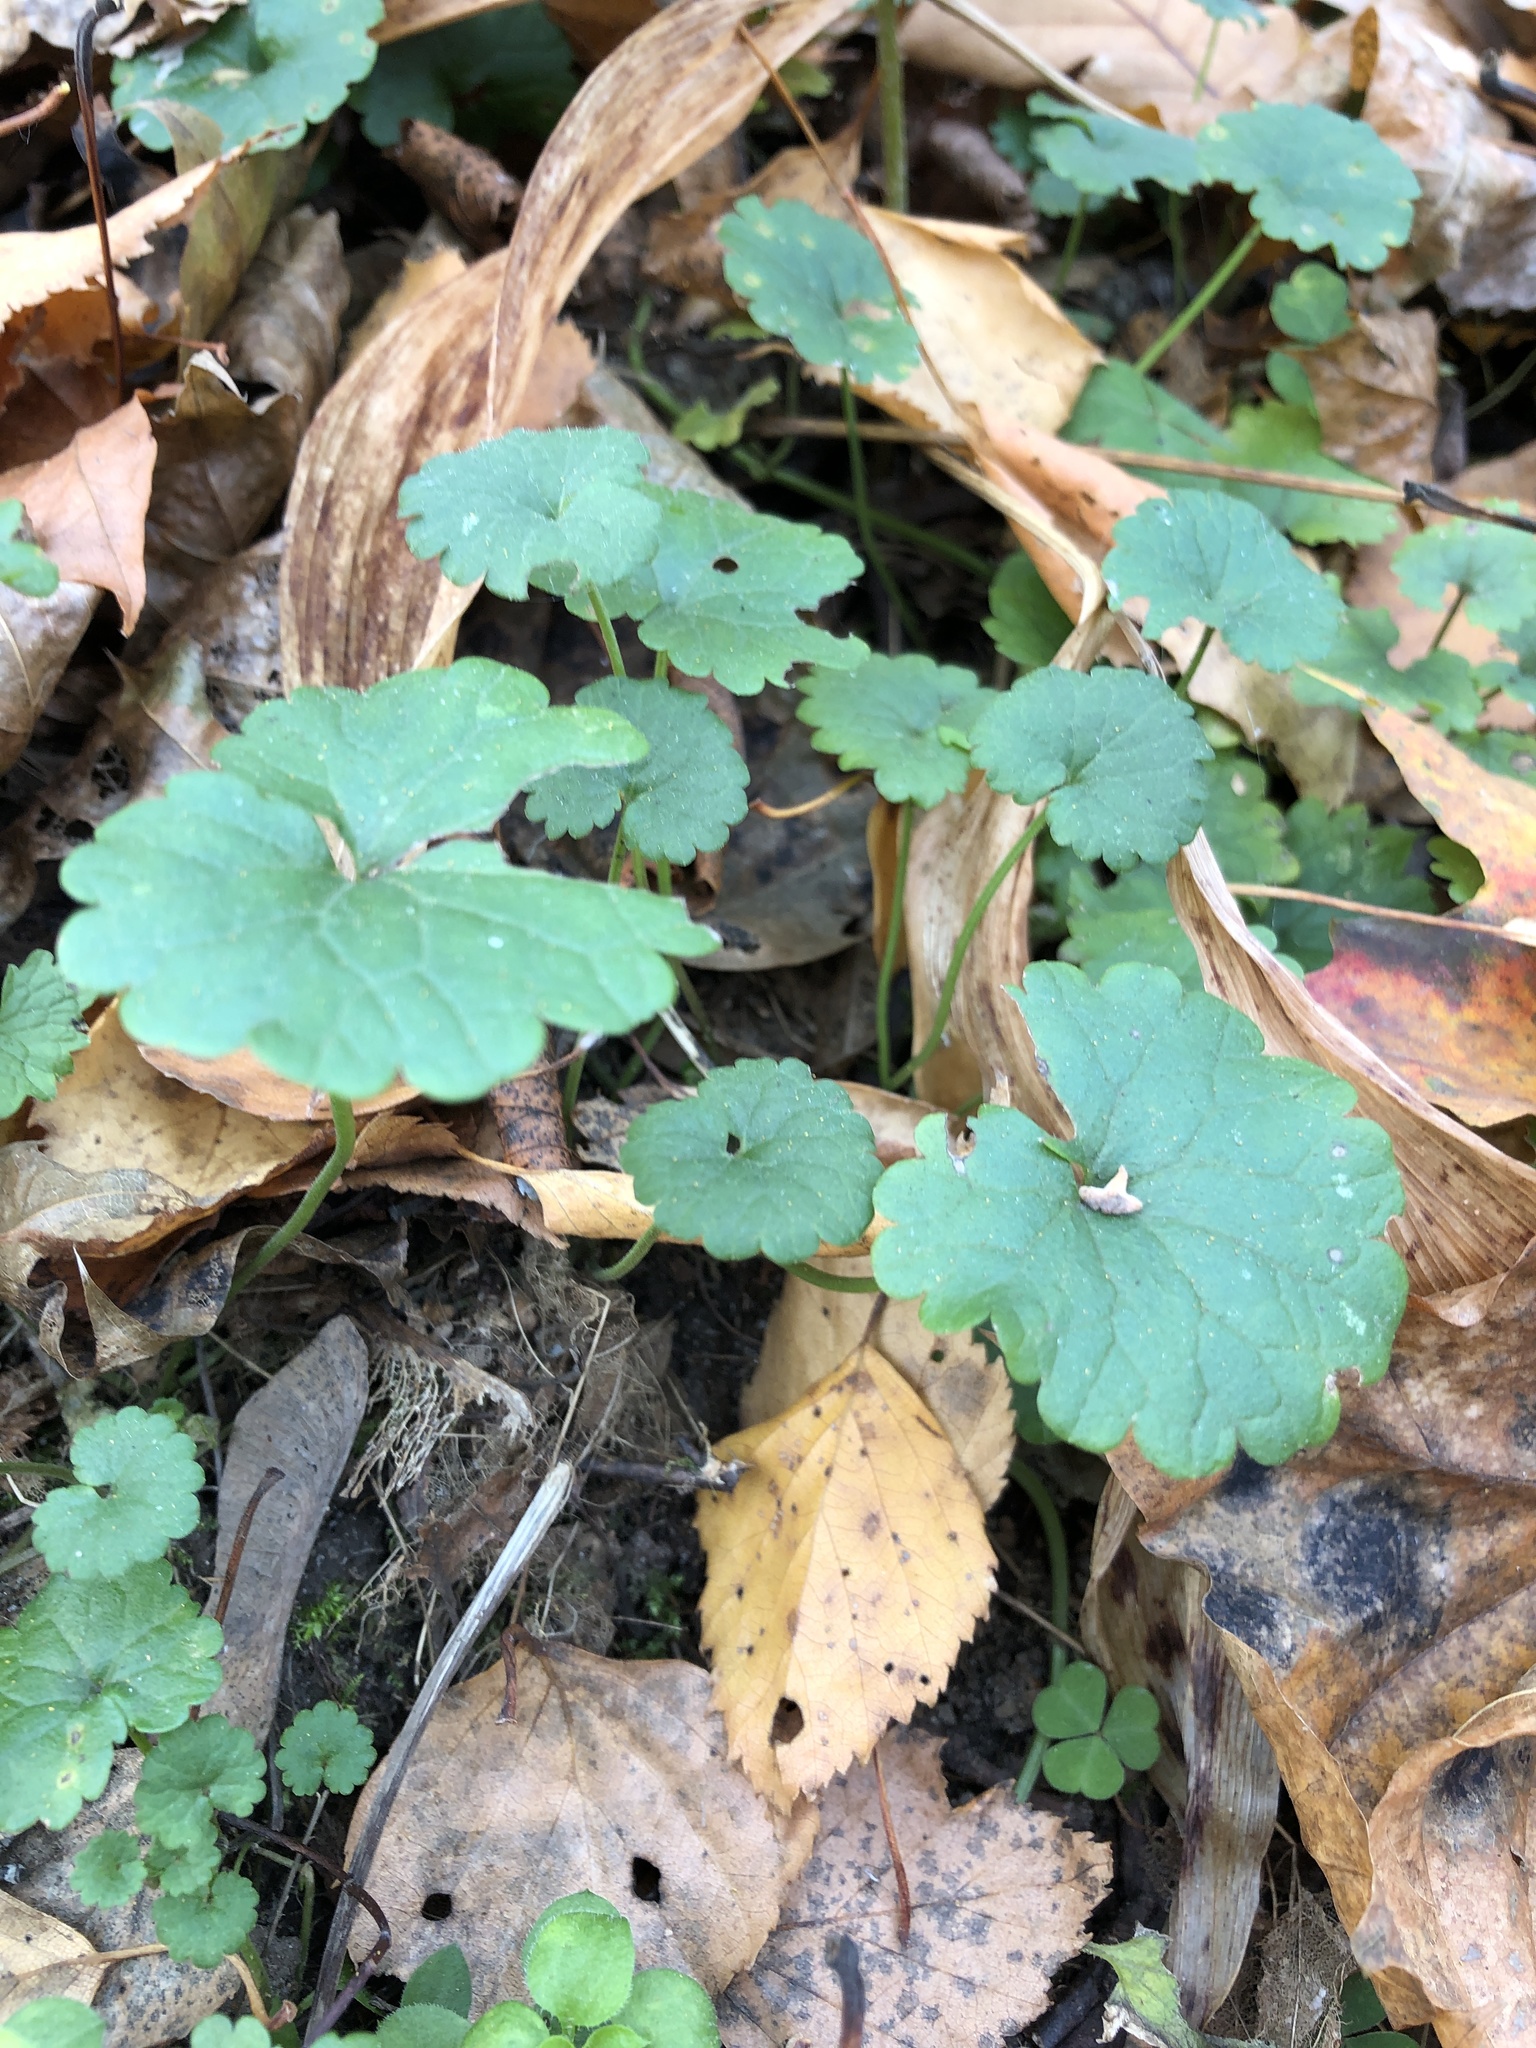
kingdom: Plantae
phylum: Tracheophyta
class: Magnoliopsida
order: Lamiales
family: Lamiaceae
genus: Glechoma
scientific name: Glechoma hederacea
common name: Ground ivy
